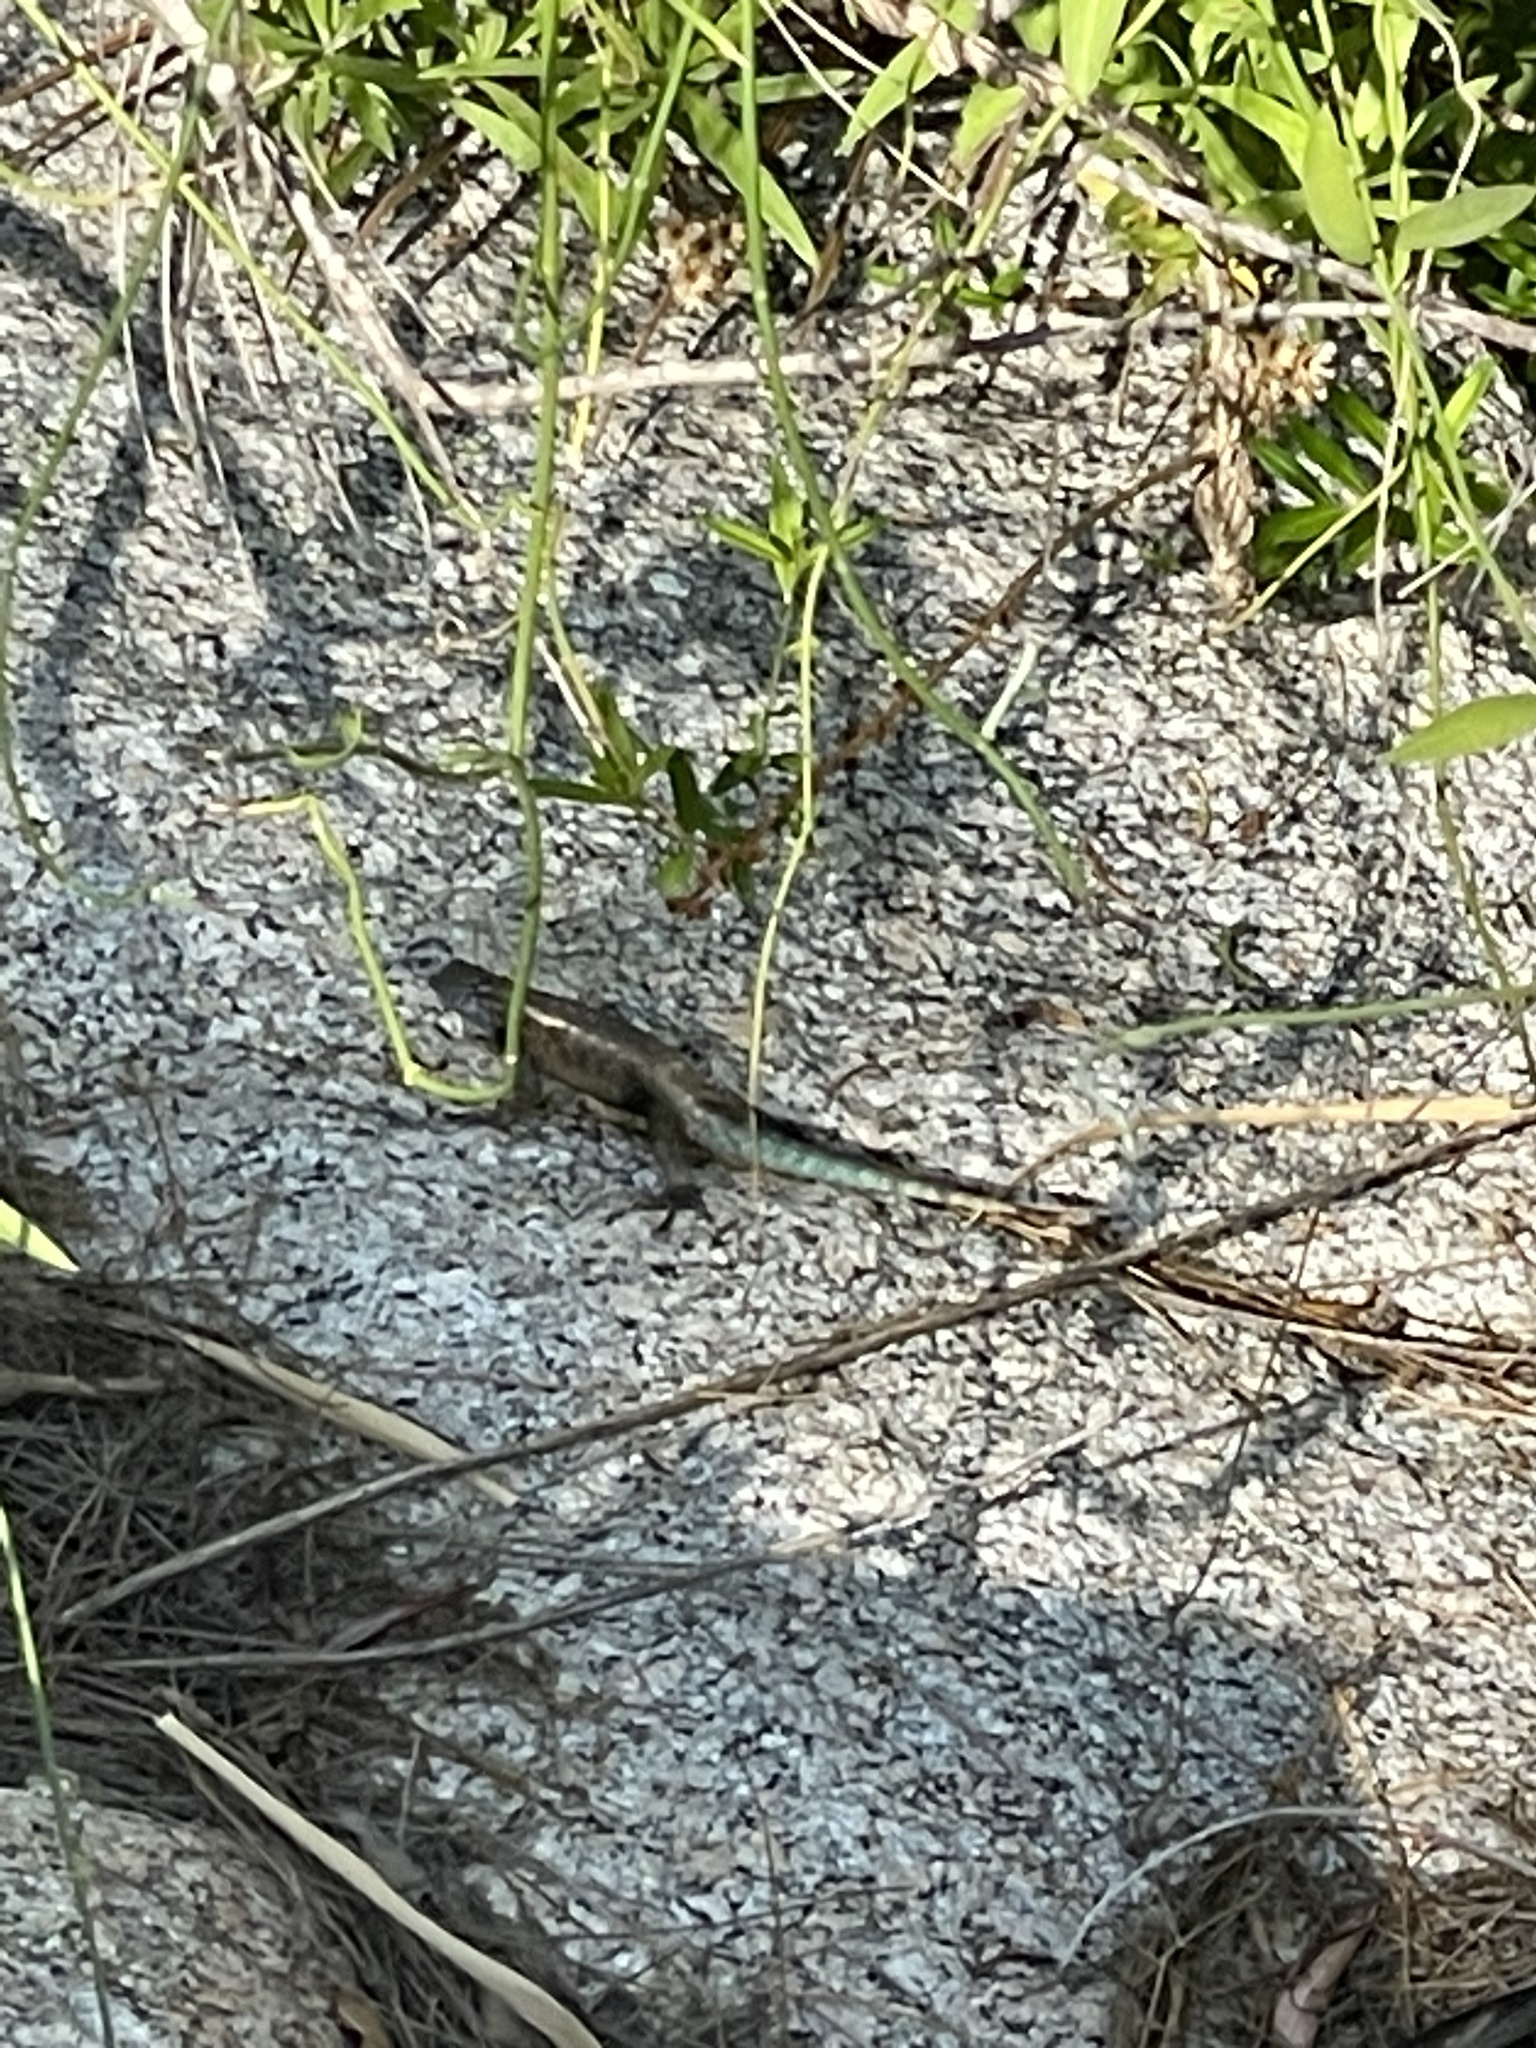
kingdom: Animalia
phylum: Chordata
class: Squamata
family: Phrynosomatidae
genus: Sceloporus
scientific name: Sceloporus licki
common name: Cape arboreal spiny lizard
